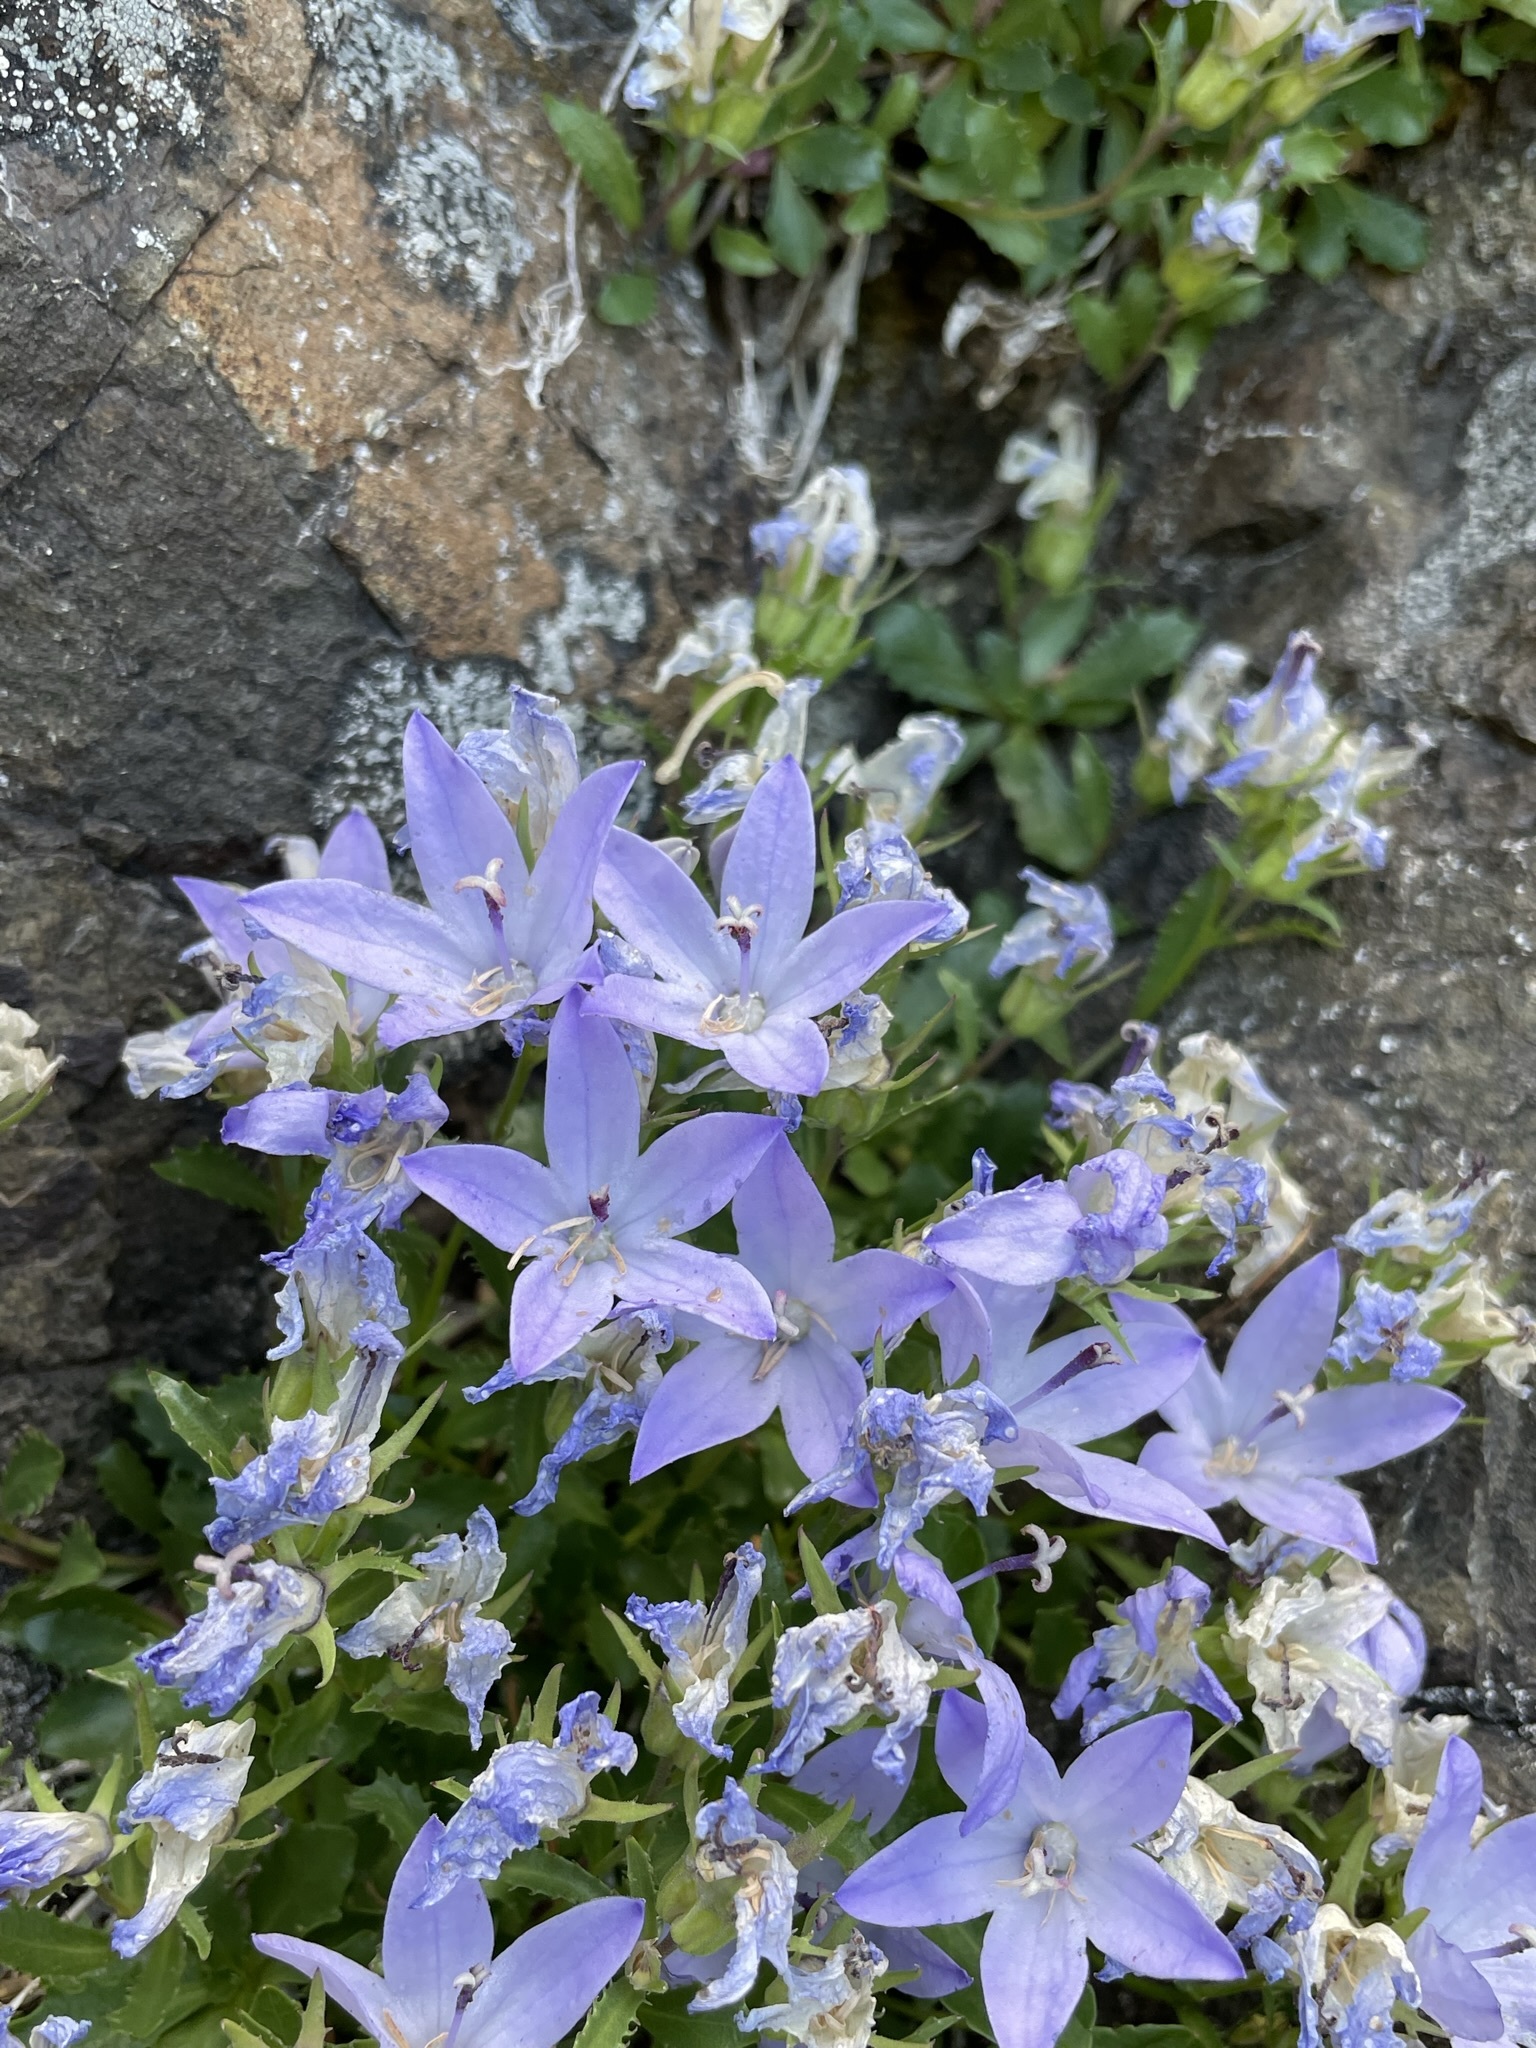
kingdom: Plantae
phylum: Tracheophyta
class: Magnoliopsida
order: Asterales
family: Campanulaceae
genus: Campanula
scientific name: Campanula piperi
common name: Olympic bellflower
